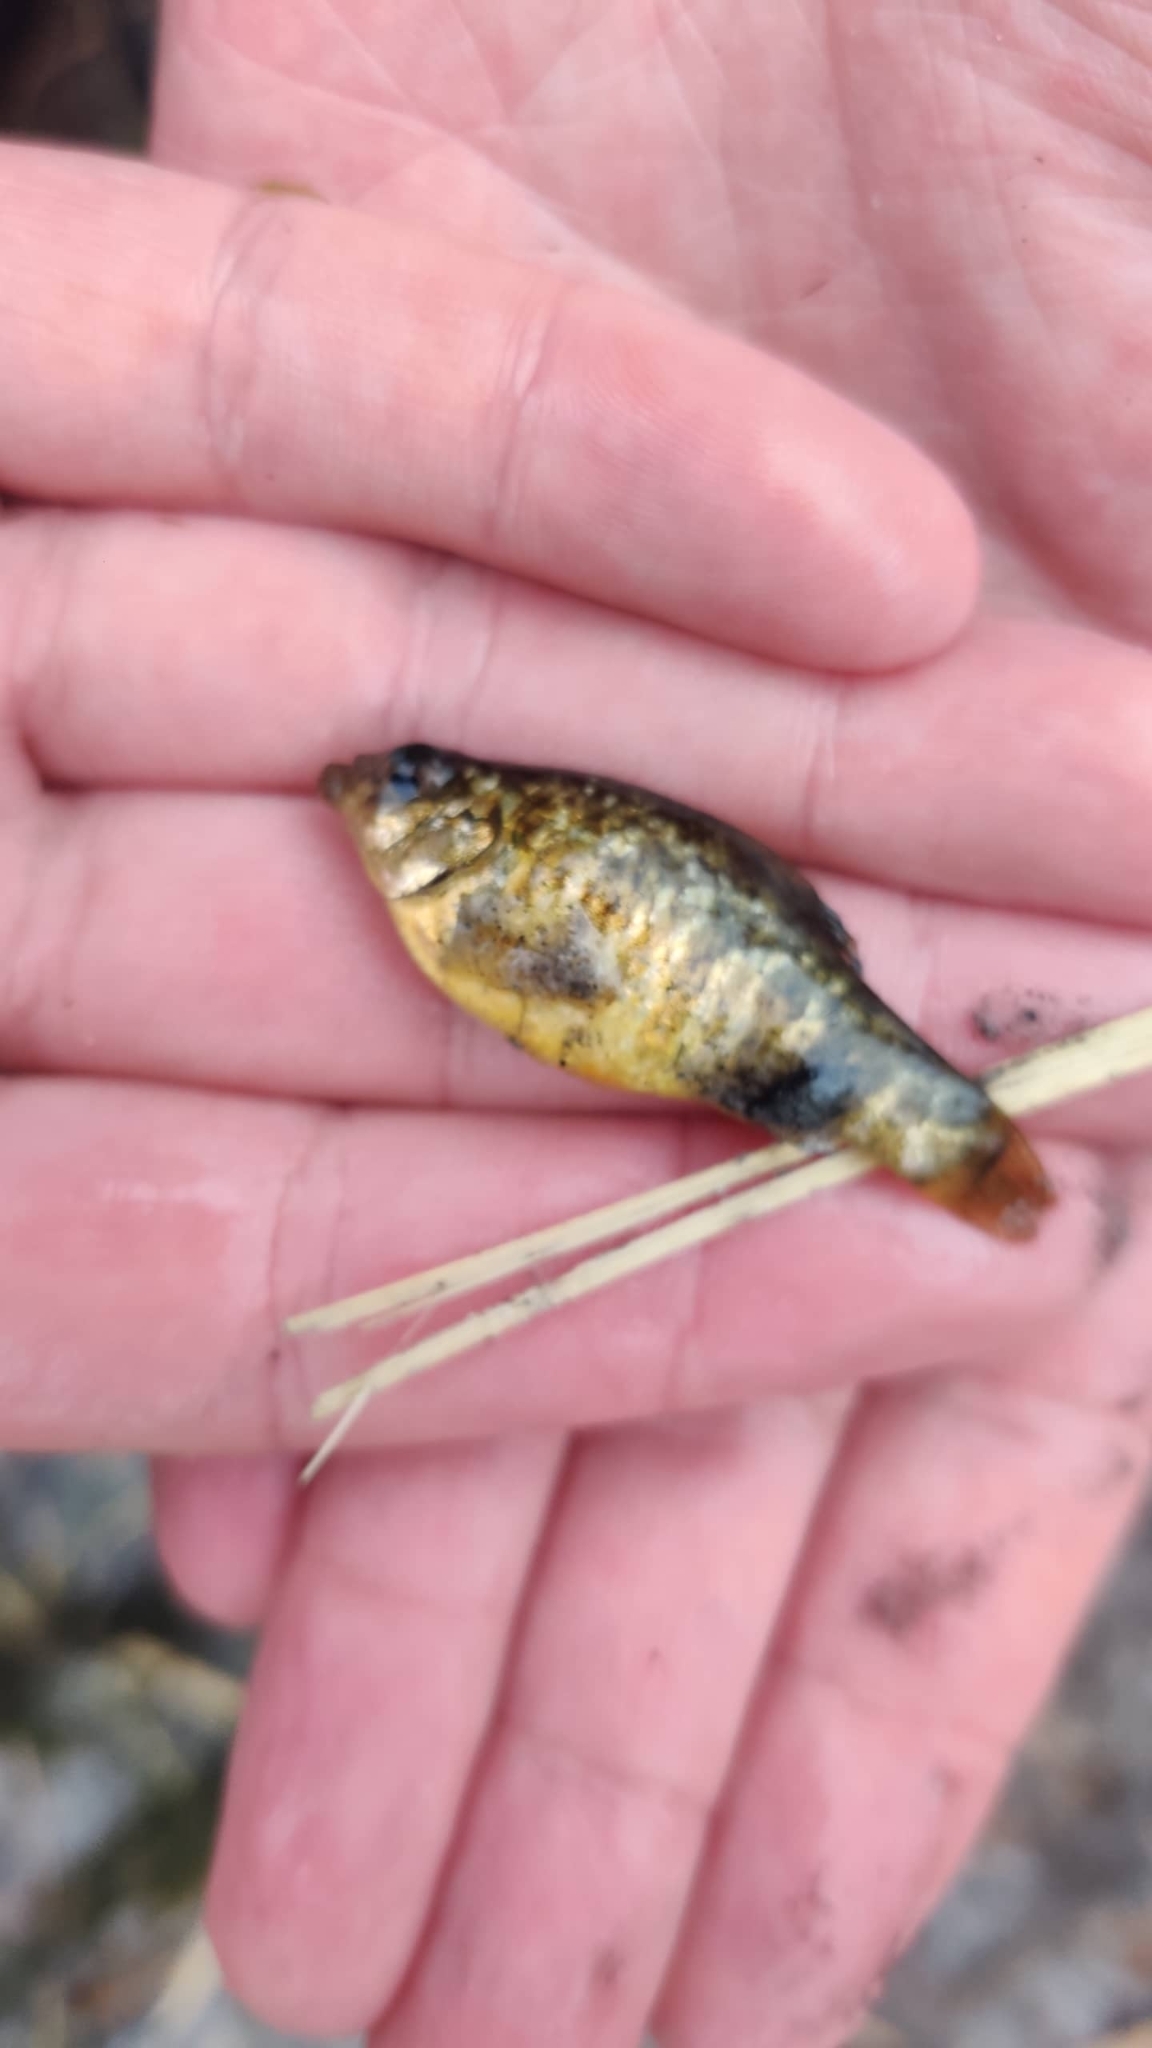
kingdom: Animalia
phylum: Chordata
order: Cyprinodontiformes
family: Cyprinodontidae
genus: Cyprinodon
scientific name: Cyprinodon variegatus
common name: Sheepshead minnow
